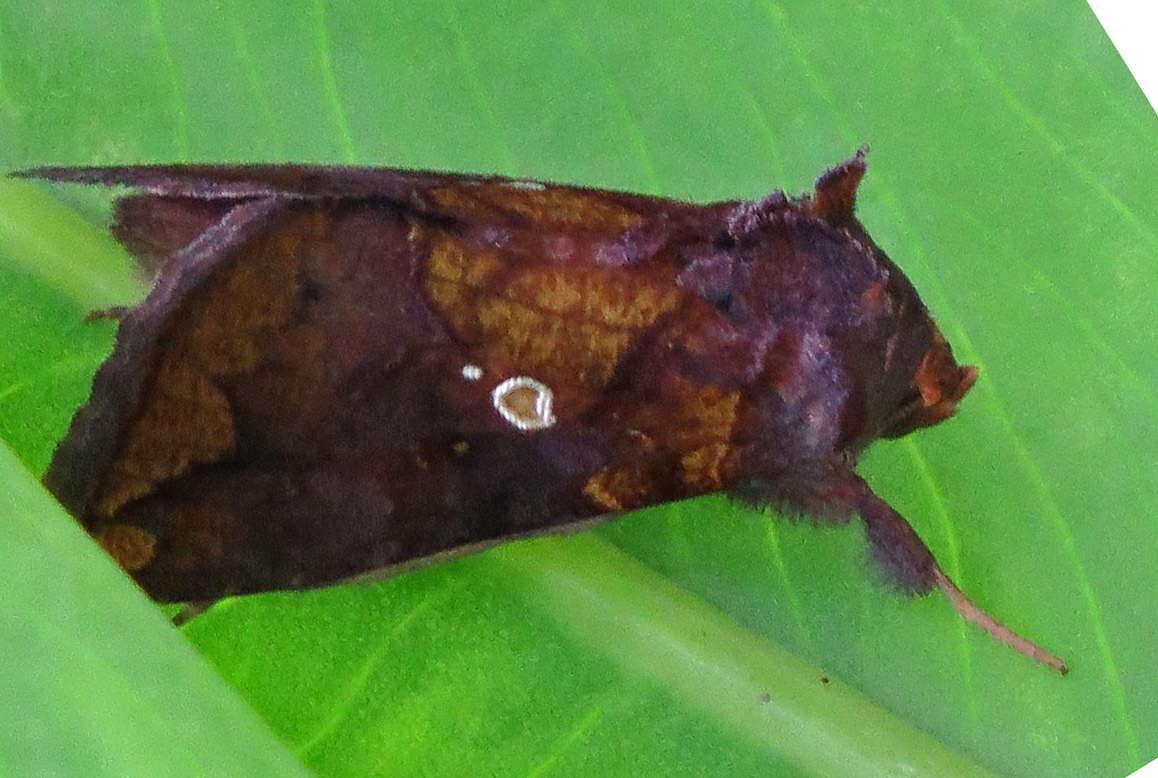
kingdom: Animalia
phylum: Arthropoda
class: Insecta
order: Lepidoptera
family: Noctuidae
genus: Argyrogramma
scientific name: Argyrogramma verruca
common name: Golden looper moth
